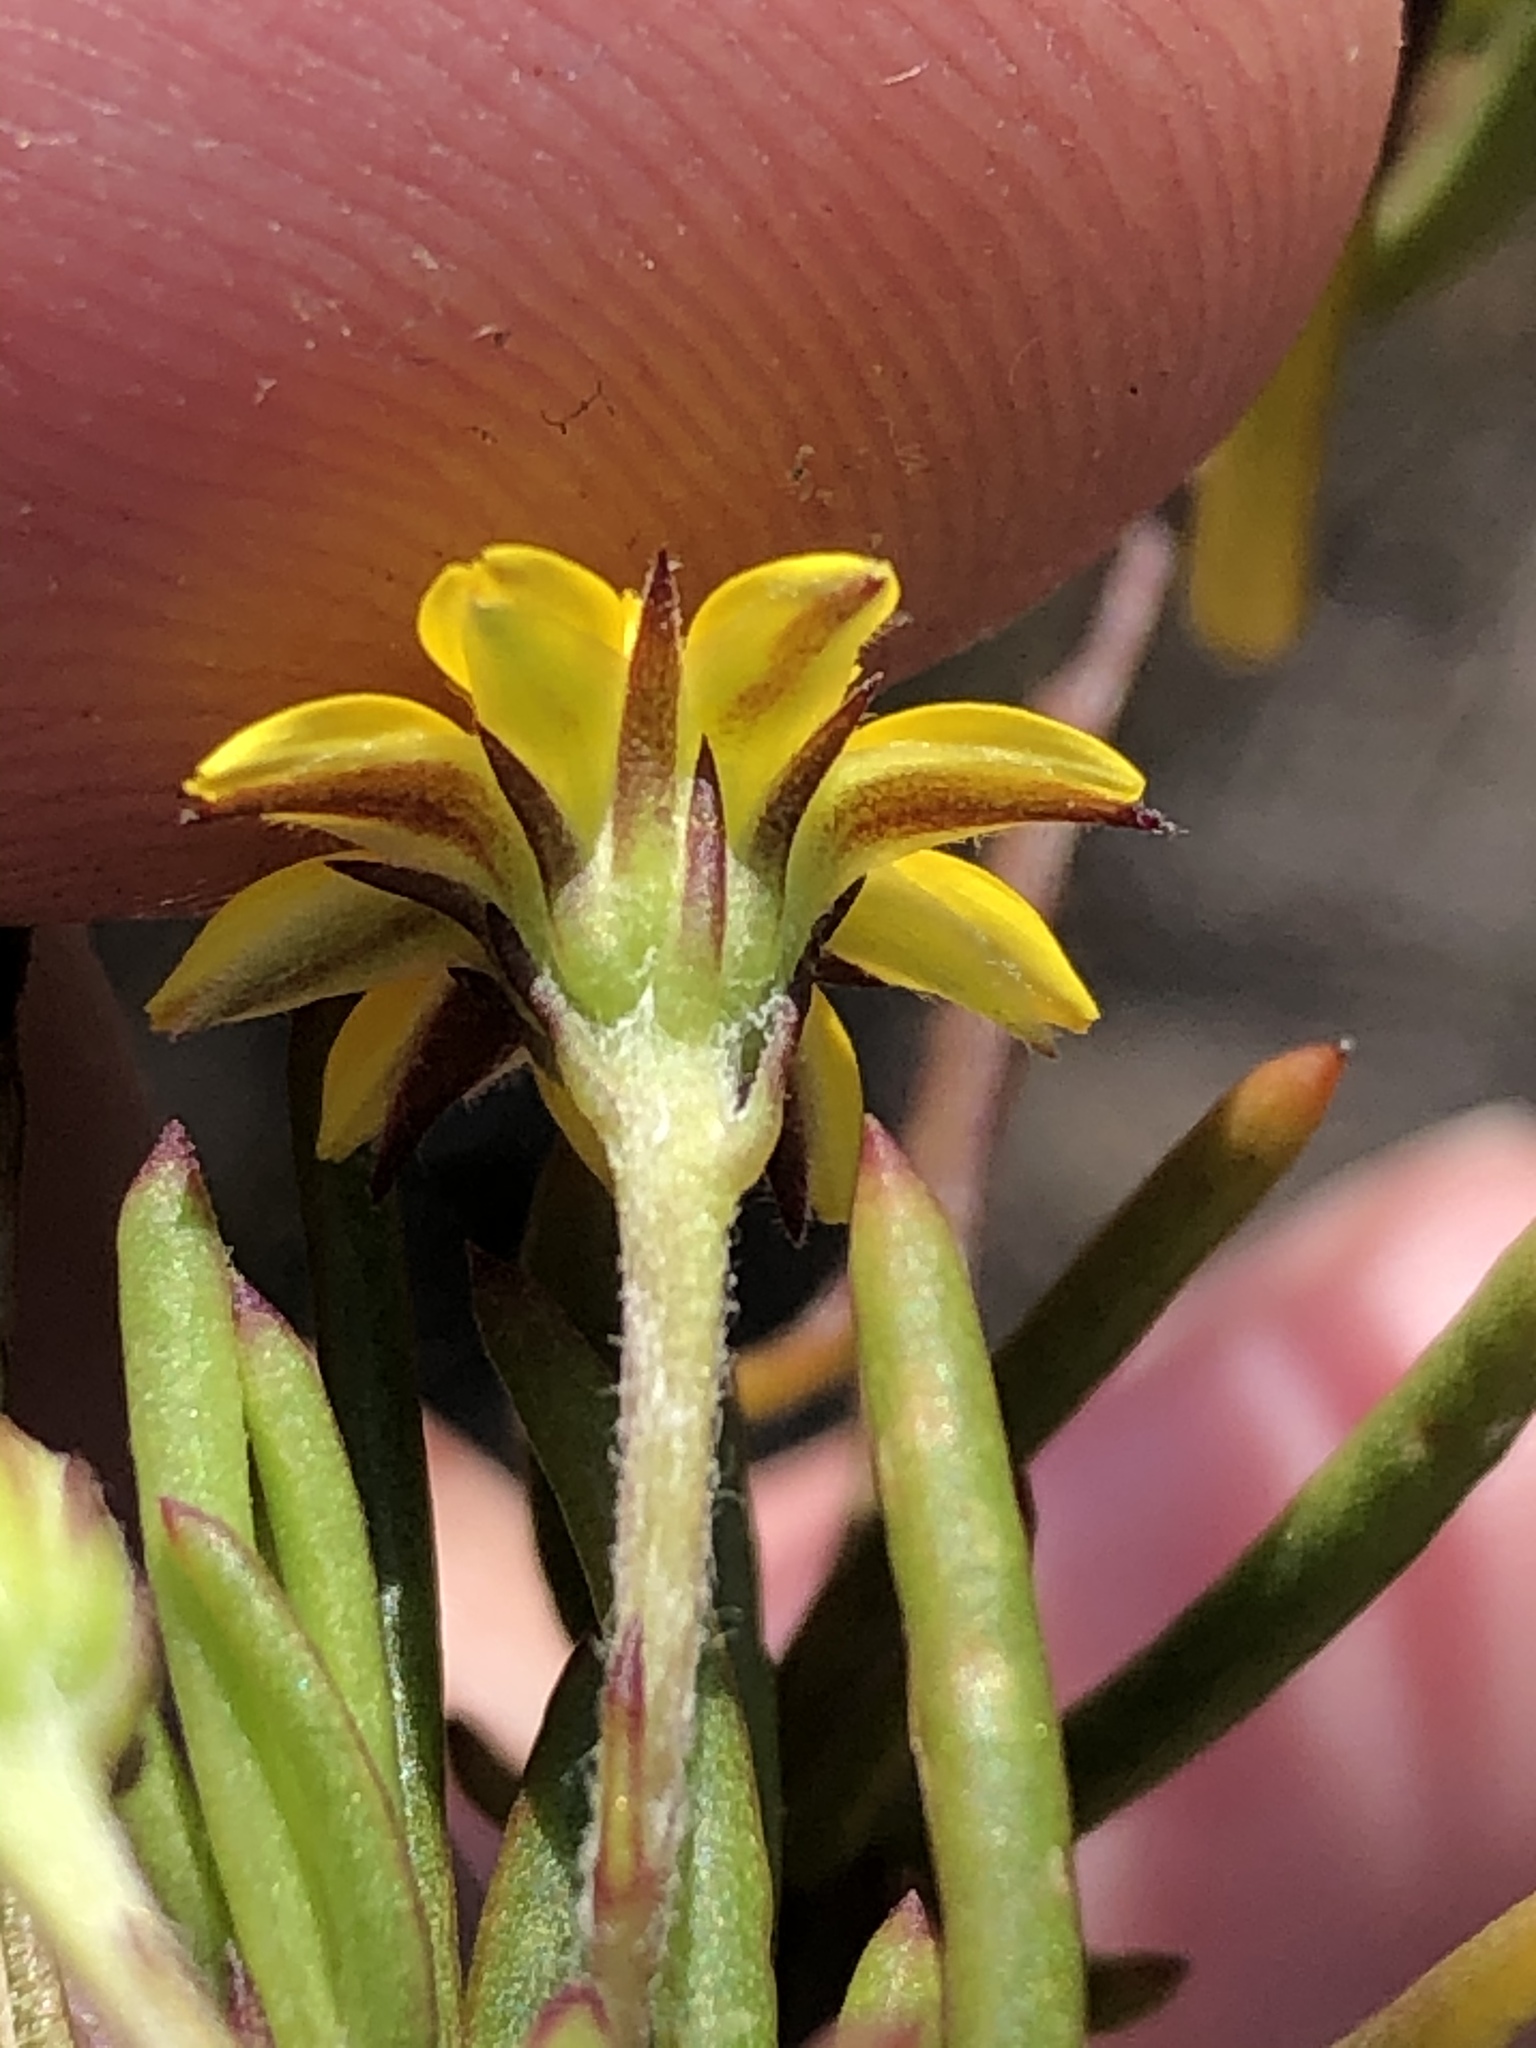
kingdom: Plantae
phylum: Tracheophyta
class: Magnoliopsida
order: Asterales
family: Asteraceae
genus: Osteospermum
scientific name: Osteospermum triquetrum
